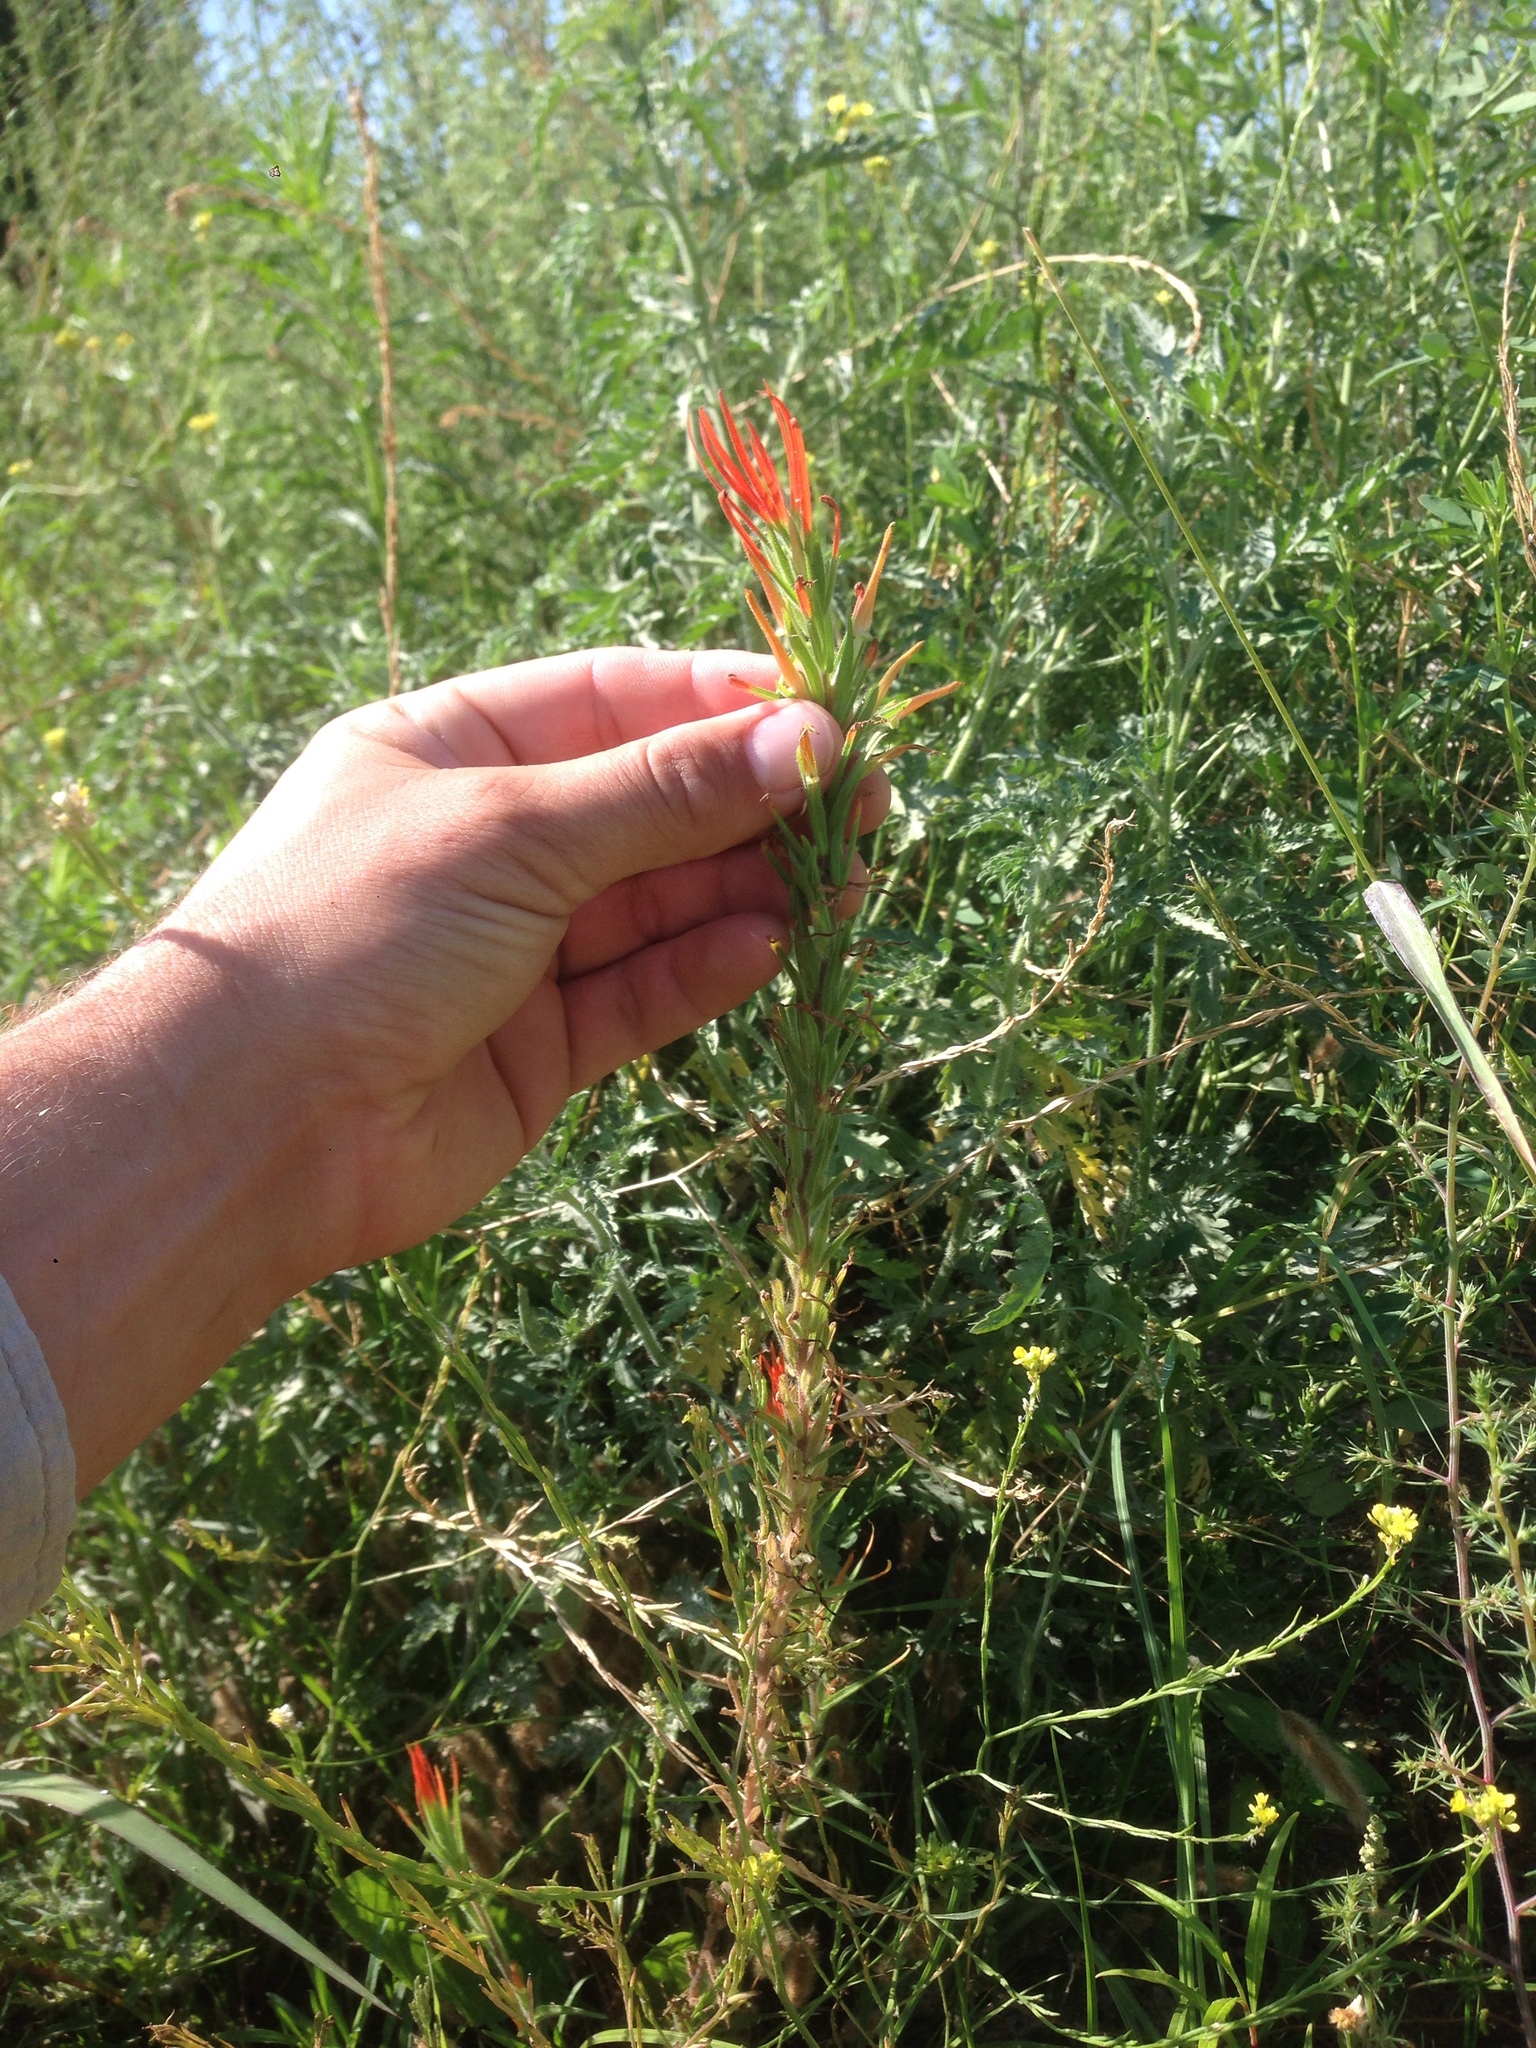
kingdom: Plantae
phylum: Tracheophyta
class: Magnoliopsida
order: Lamiales
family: Orobanchaceae
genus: Castilleja
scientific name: Castilleja minor
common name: Seep paintbrush
